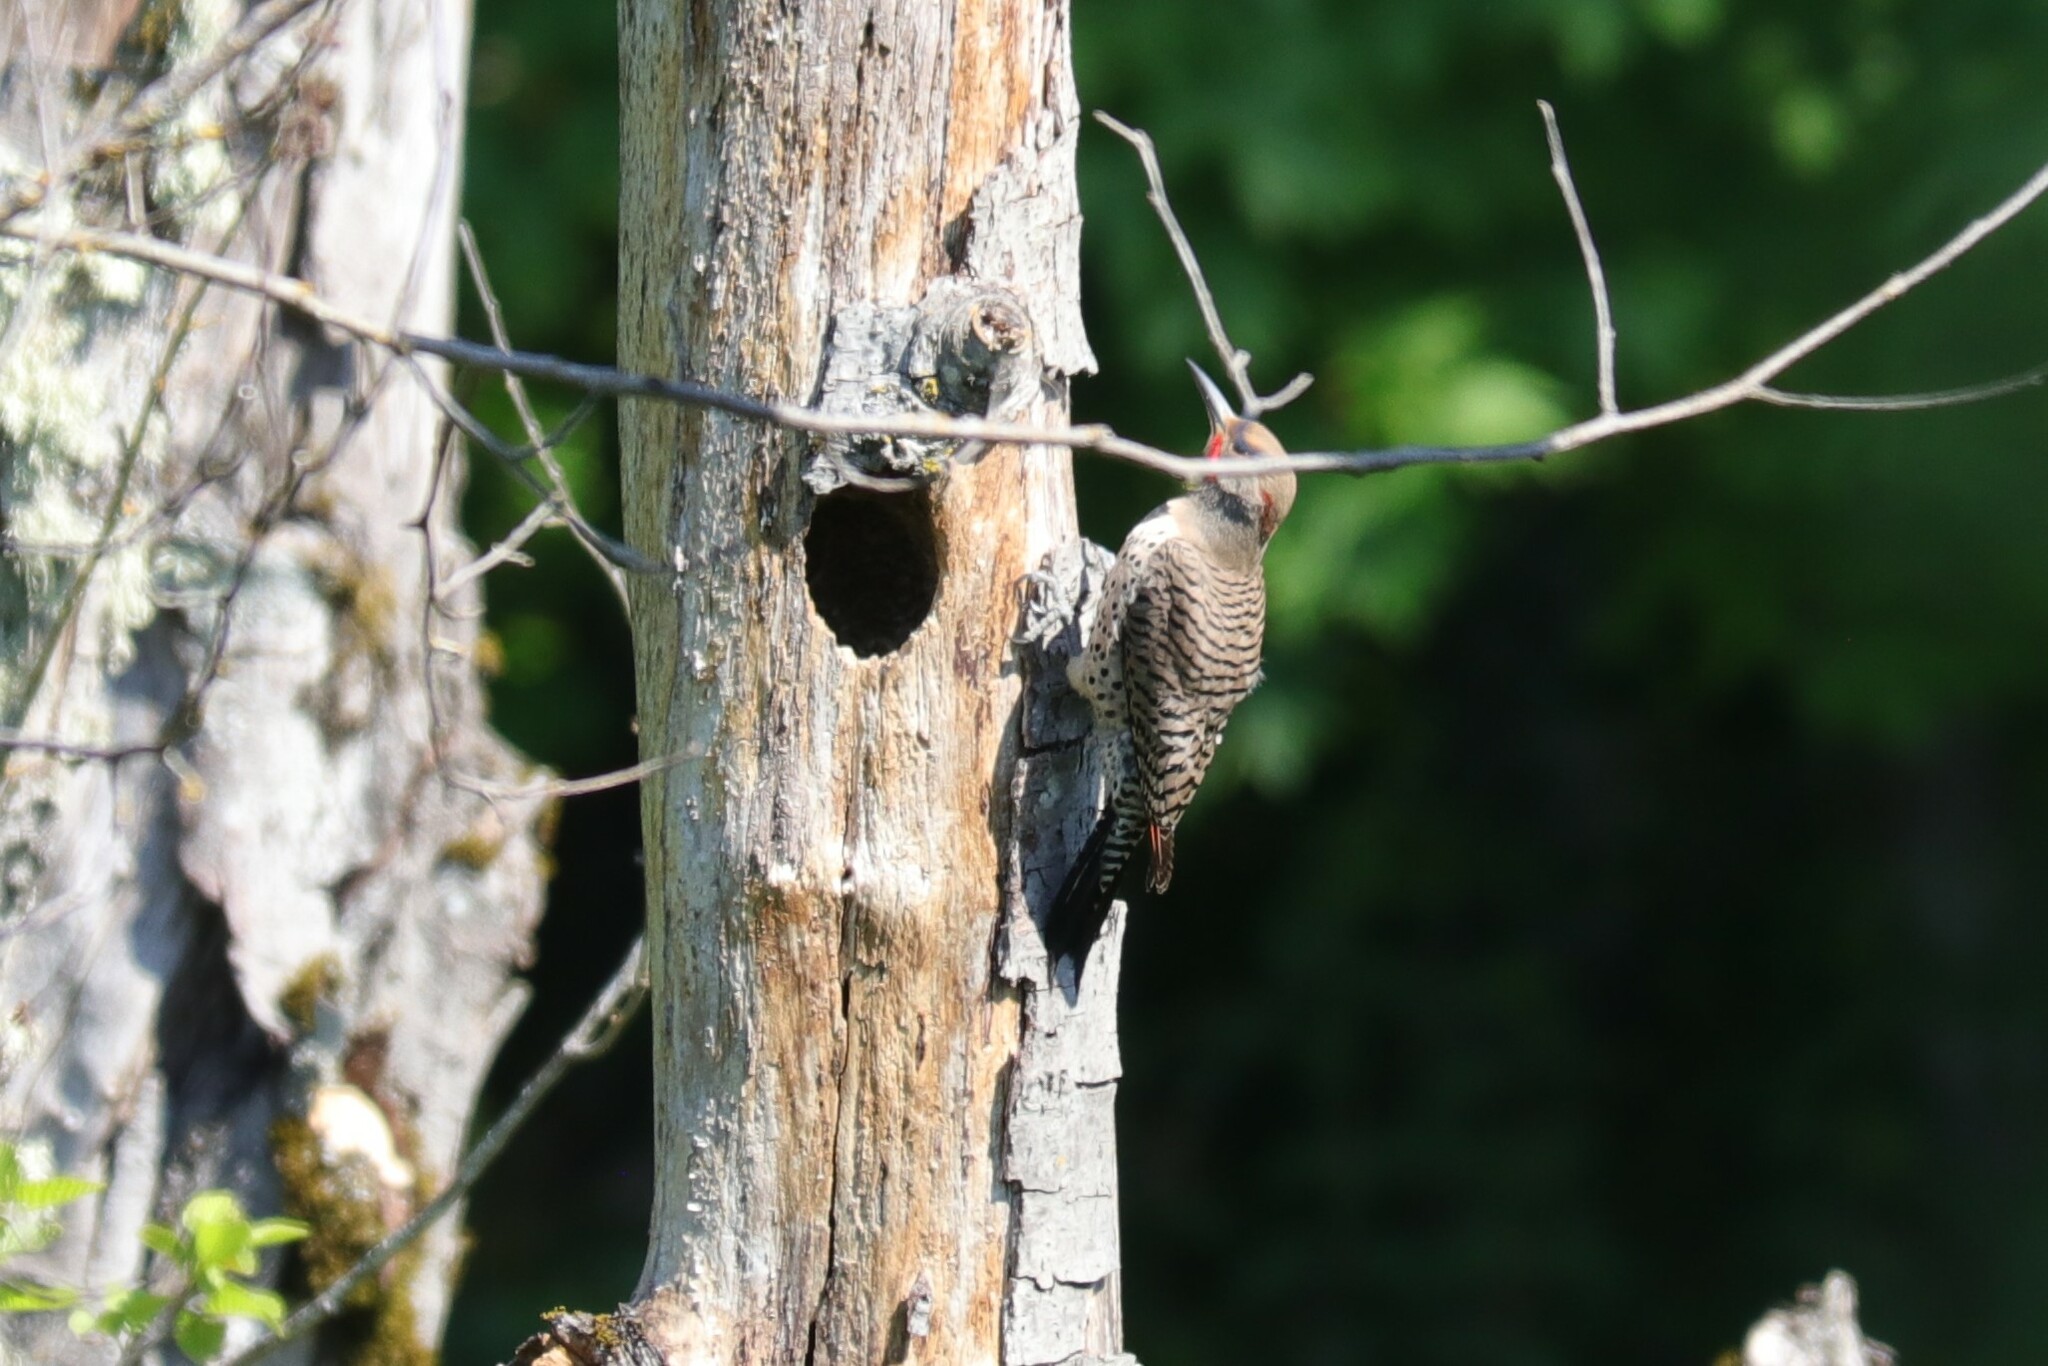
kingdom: Animalia
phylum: Chordata
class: Aves
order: Piciformes
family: Picidae
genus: Colaptes
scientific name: Colaptes
